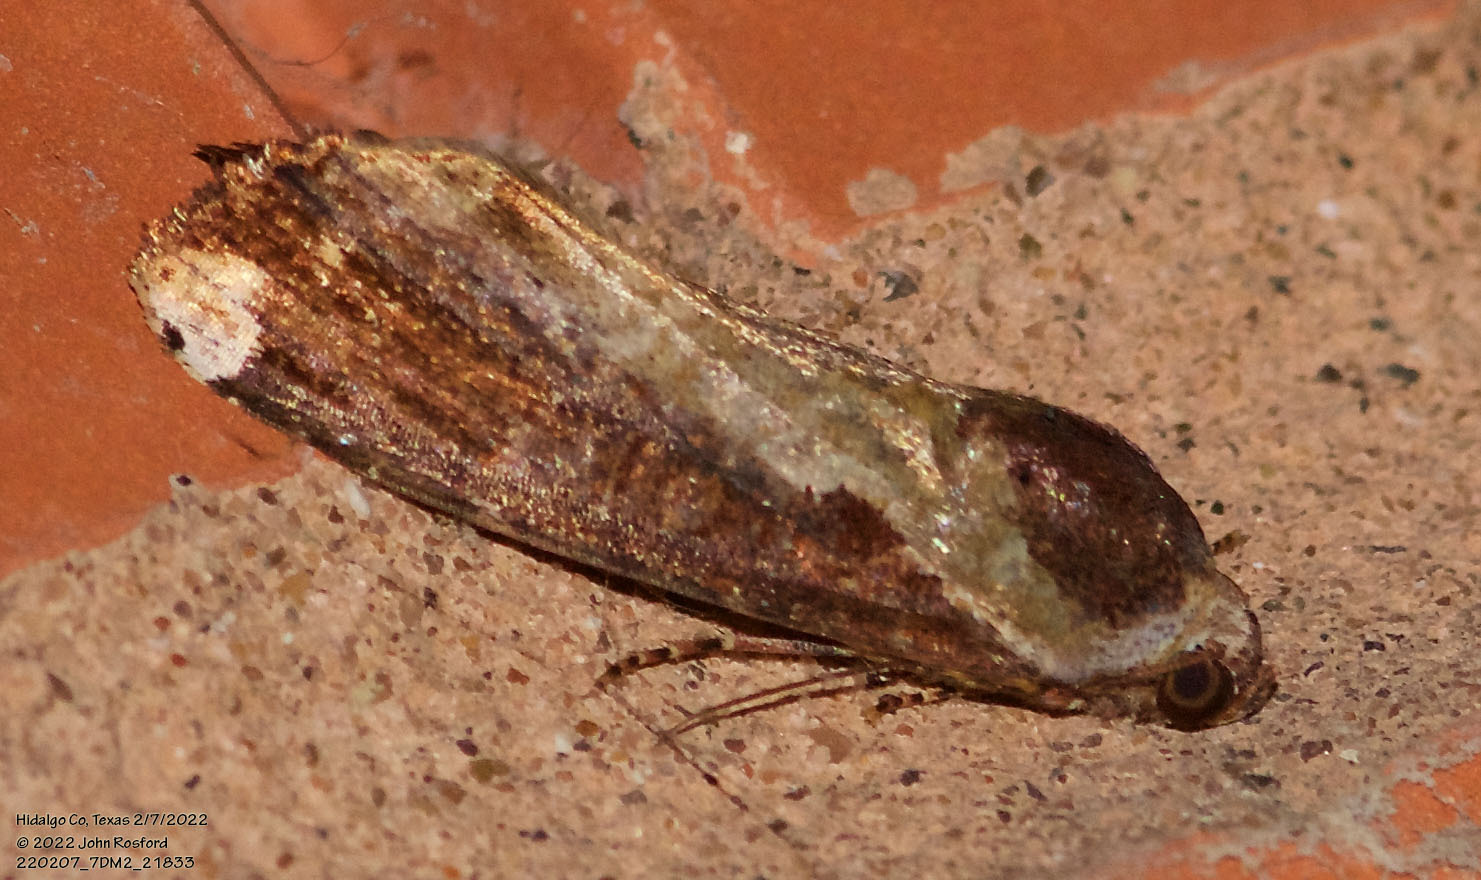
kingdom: Animalia
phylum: Arthropoda
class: Insecta
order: Lepidoptera
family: Noctuidae
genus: Magusa
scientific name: Magusa divaricata
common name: Orb narrow-winged moth
